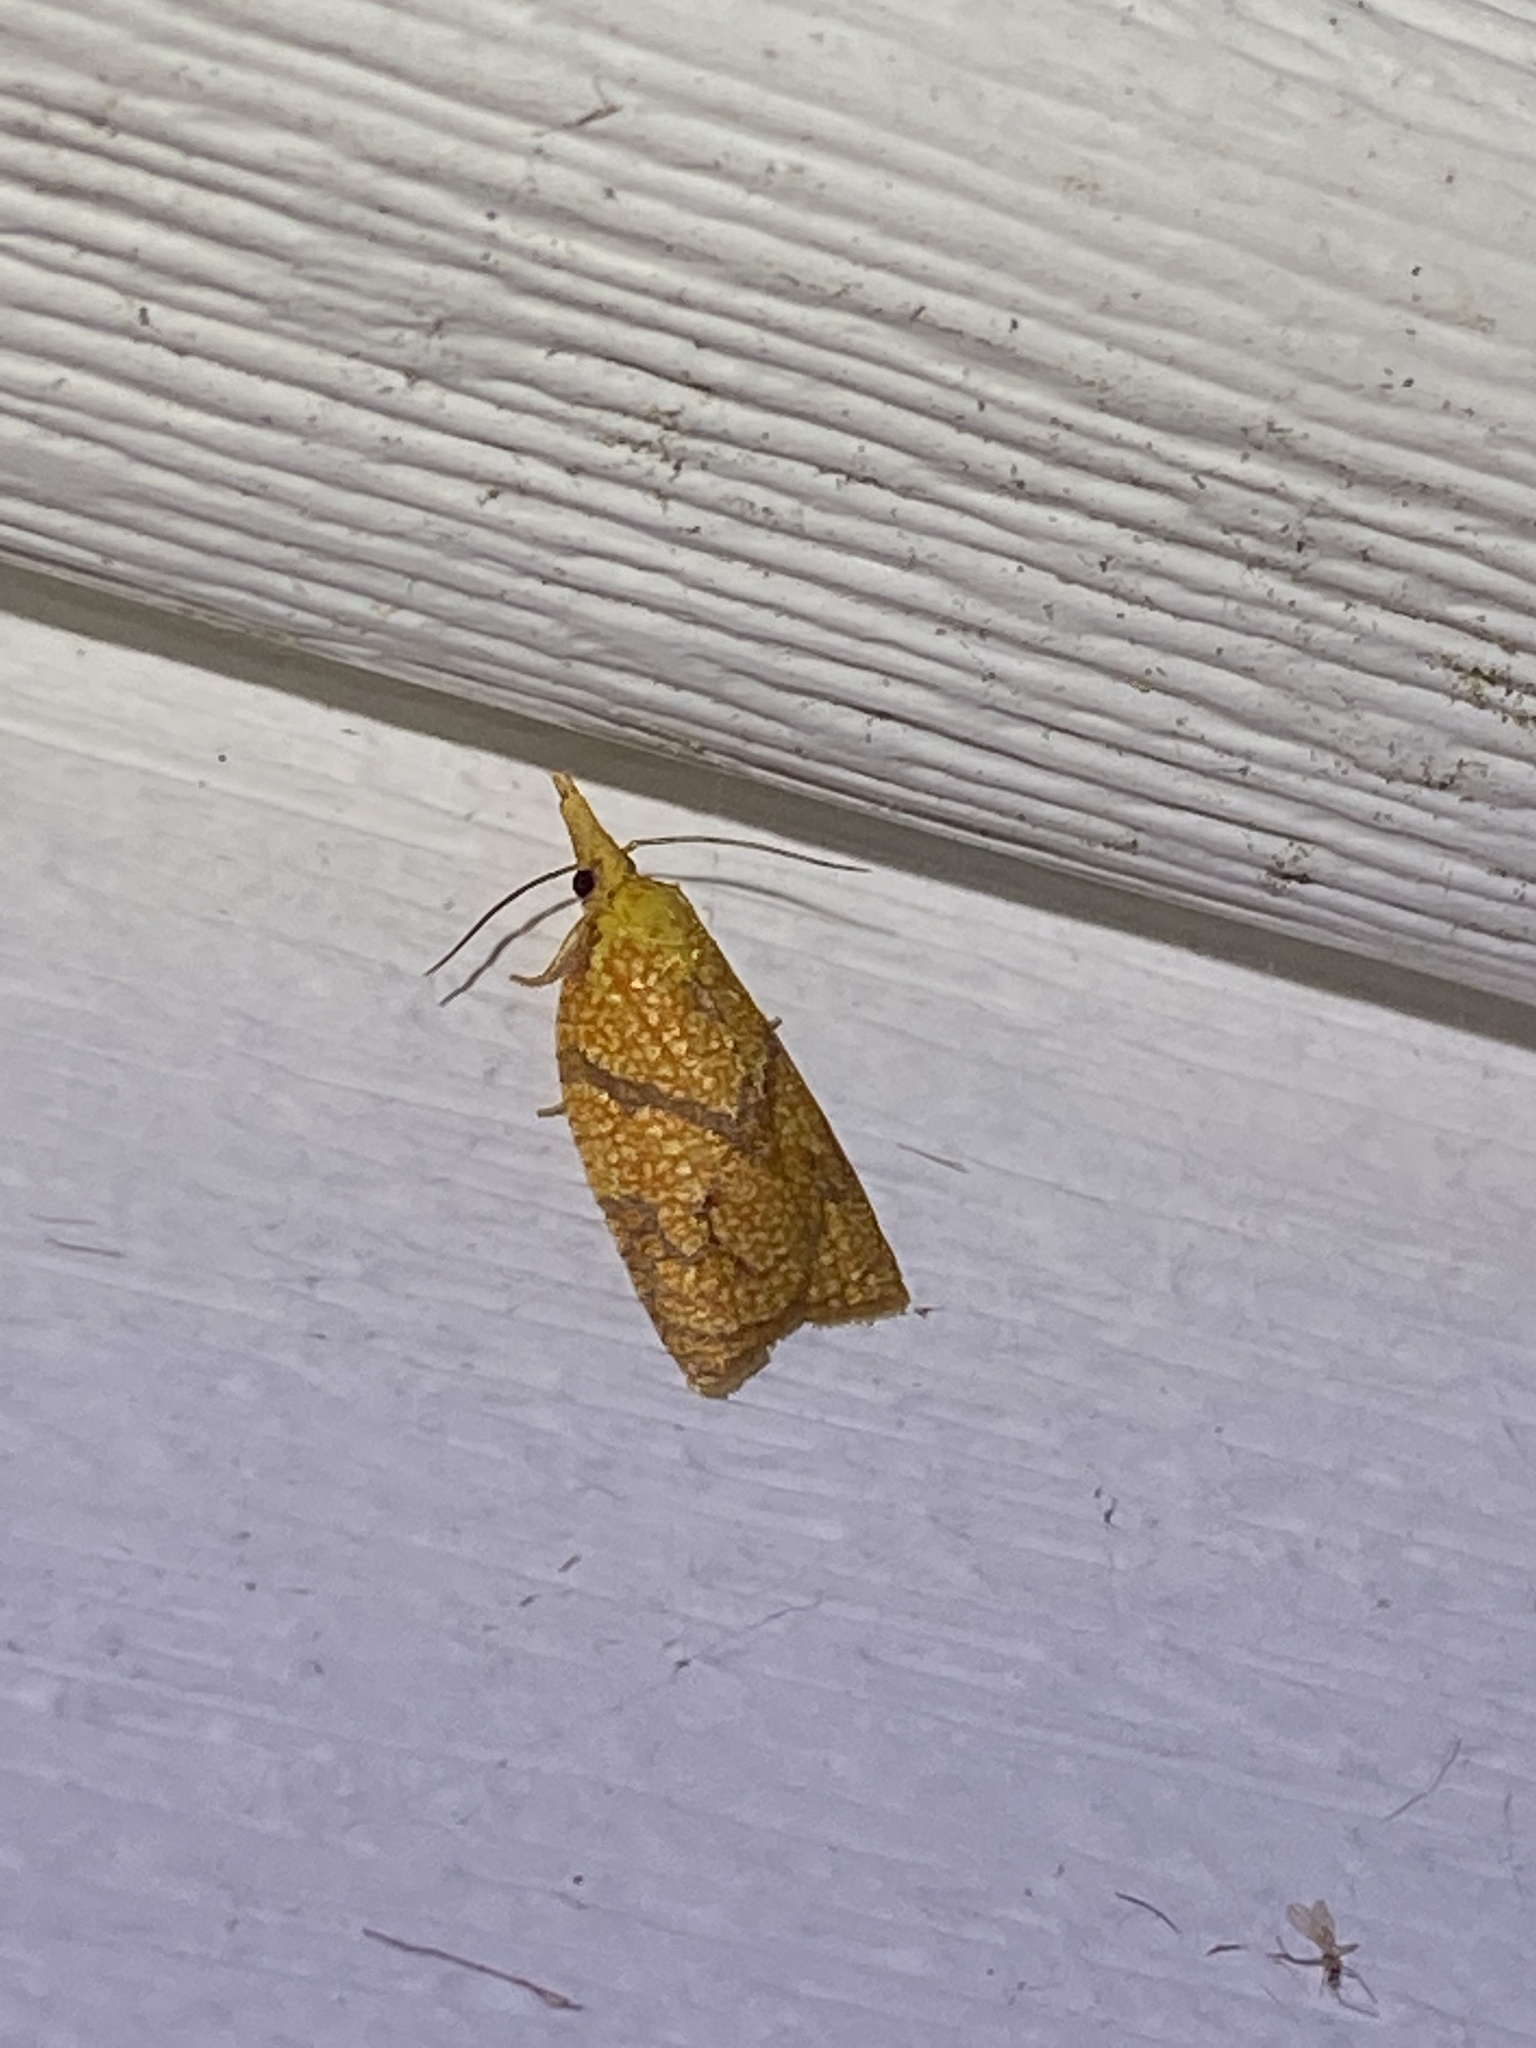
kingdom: Animalia
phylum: Arthropoda
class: Insecta
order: Lepidoptera
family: Tortricidae
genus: Cenopis
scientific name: Cenopis reticulatana
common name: Reticulated fruitworm moth
